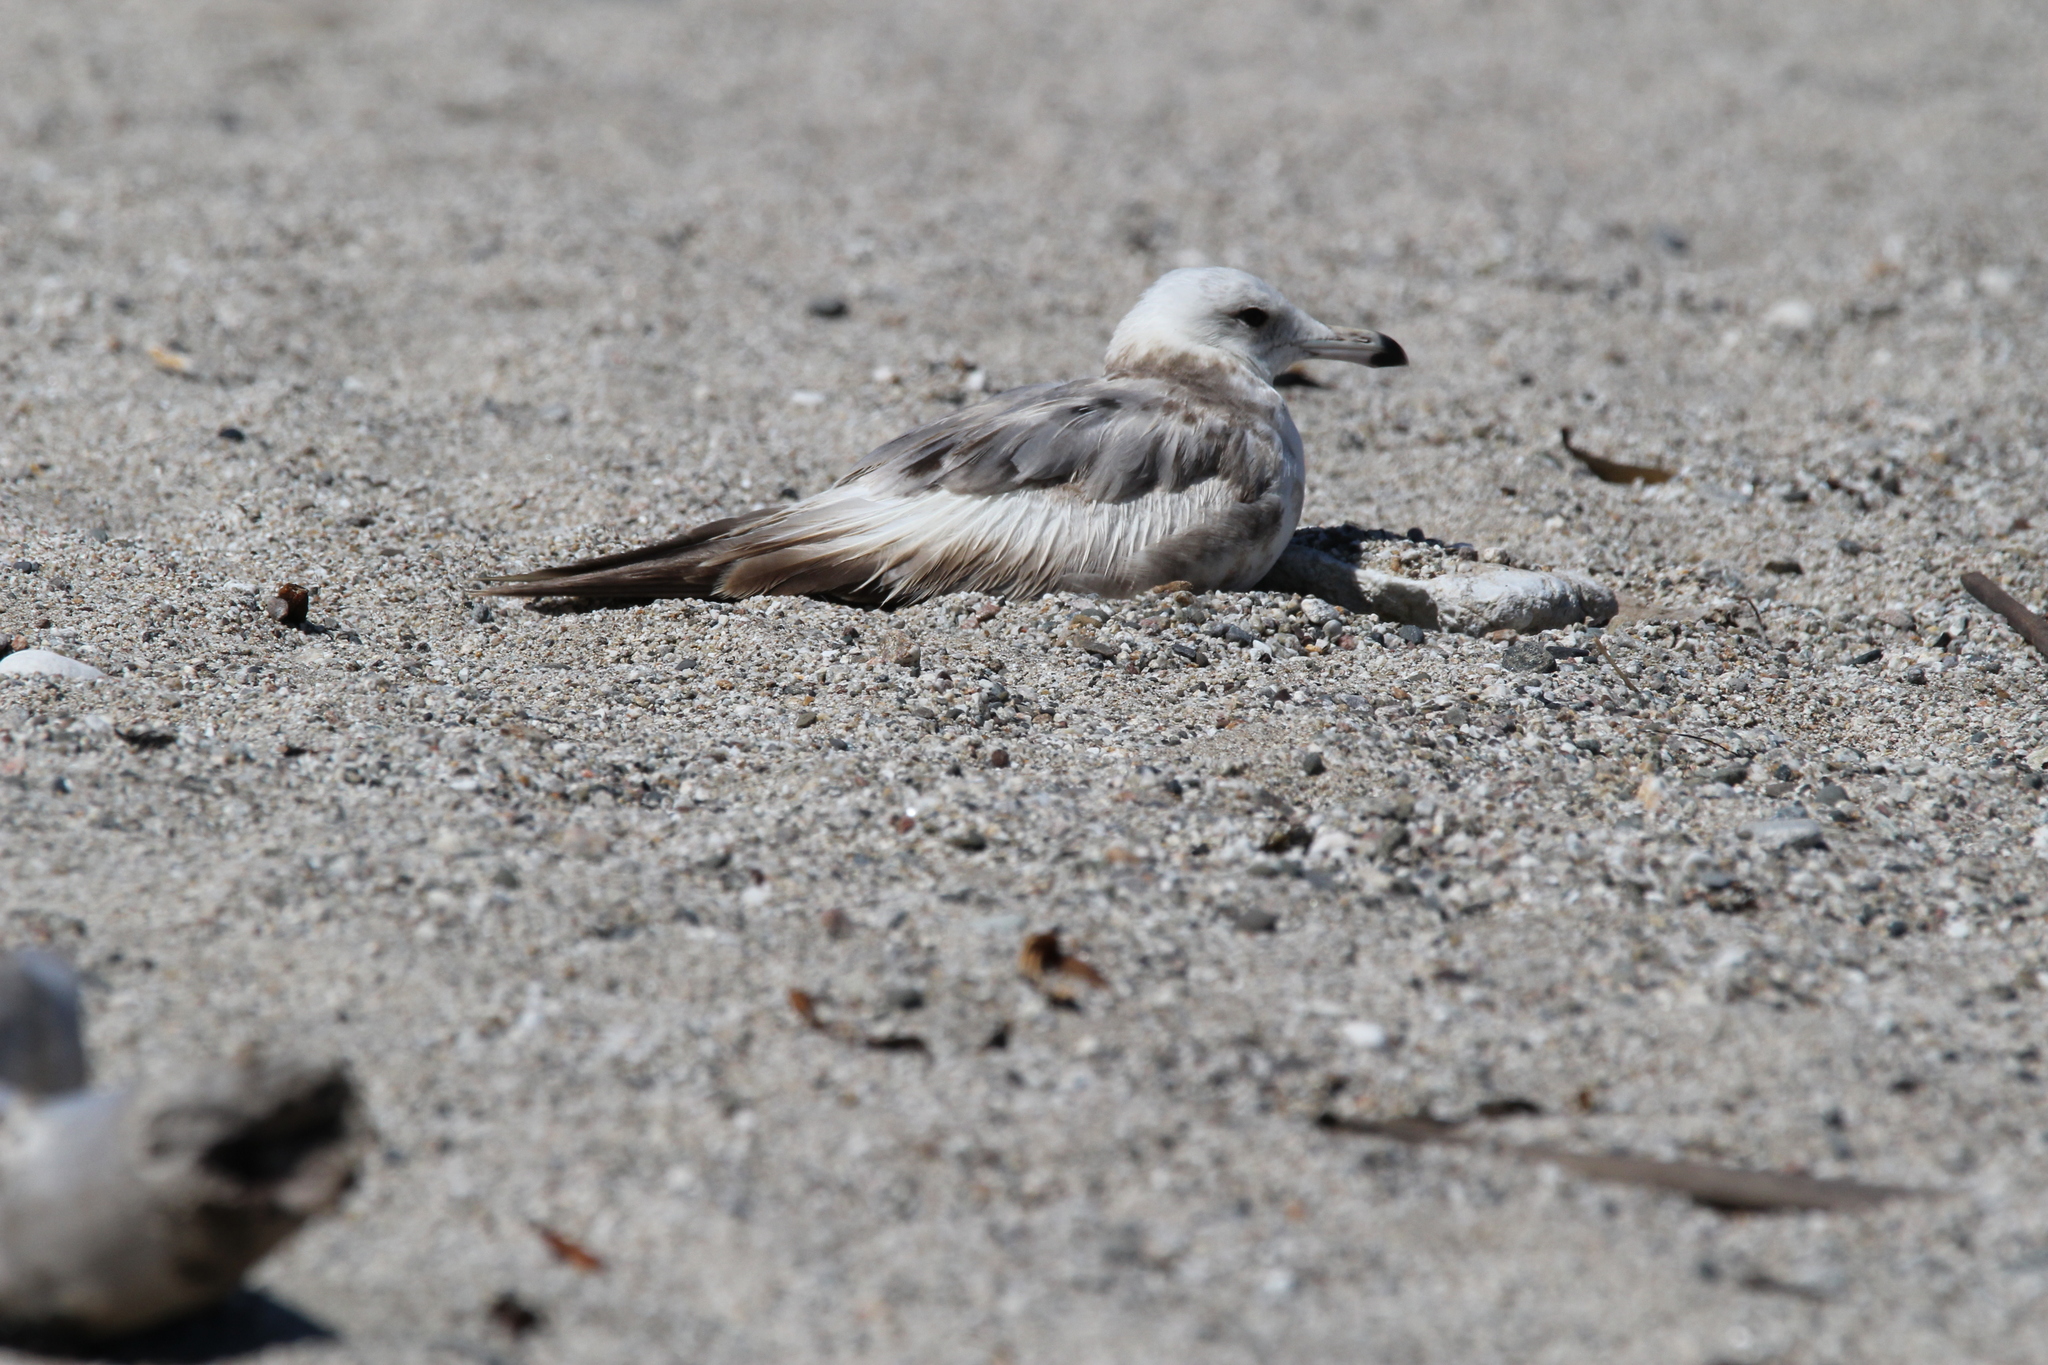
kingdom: Animalia
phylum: Chordata
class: Aves
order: Charadriiformes
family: Laridae
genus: Larus
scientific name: Larus californicus
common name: California gull
